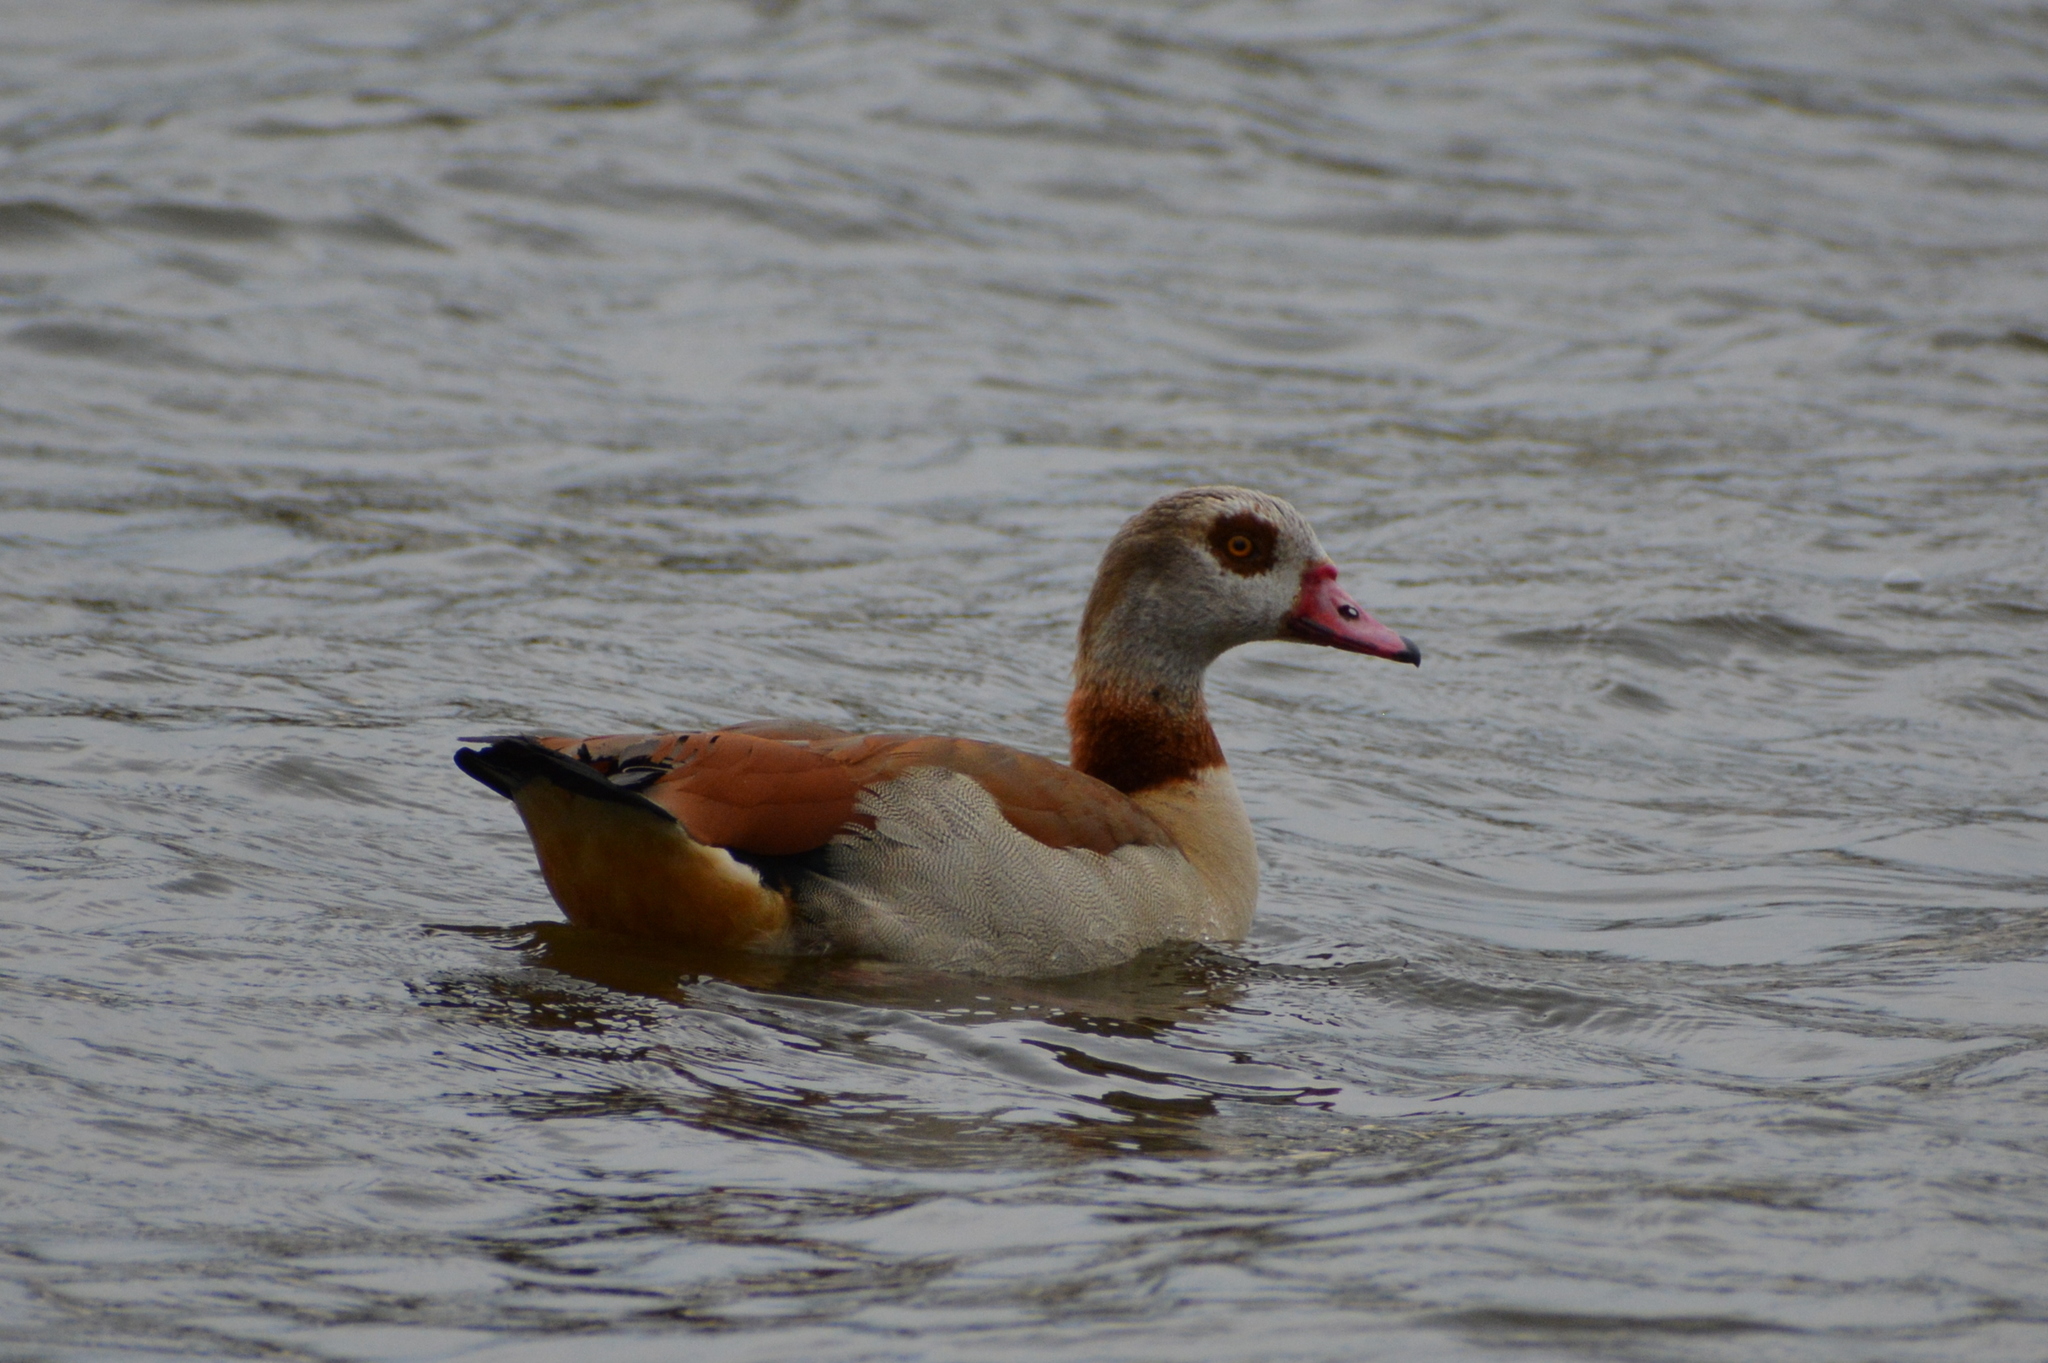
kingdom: Animalia
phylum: Chordata
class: Aves
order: Anseriformes
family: Anatidae
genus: Alopochen
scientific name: Alopochen aegyptiaca
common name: Egyptian goose
